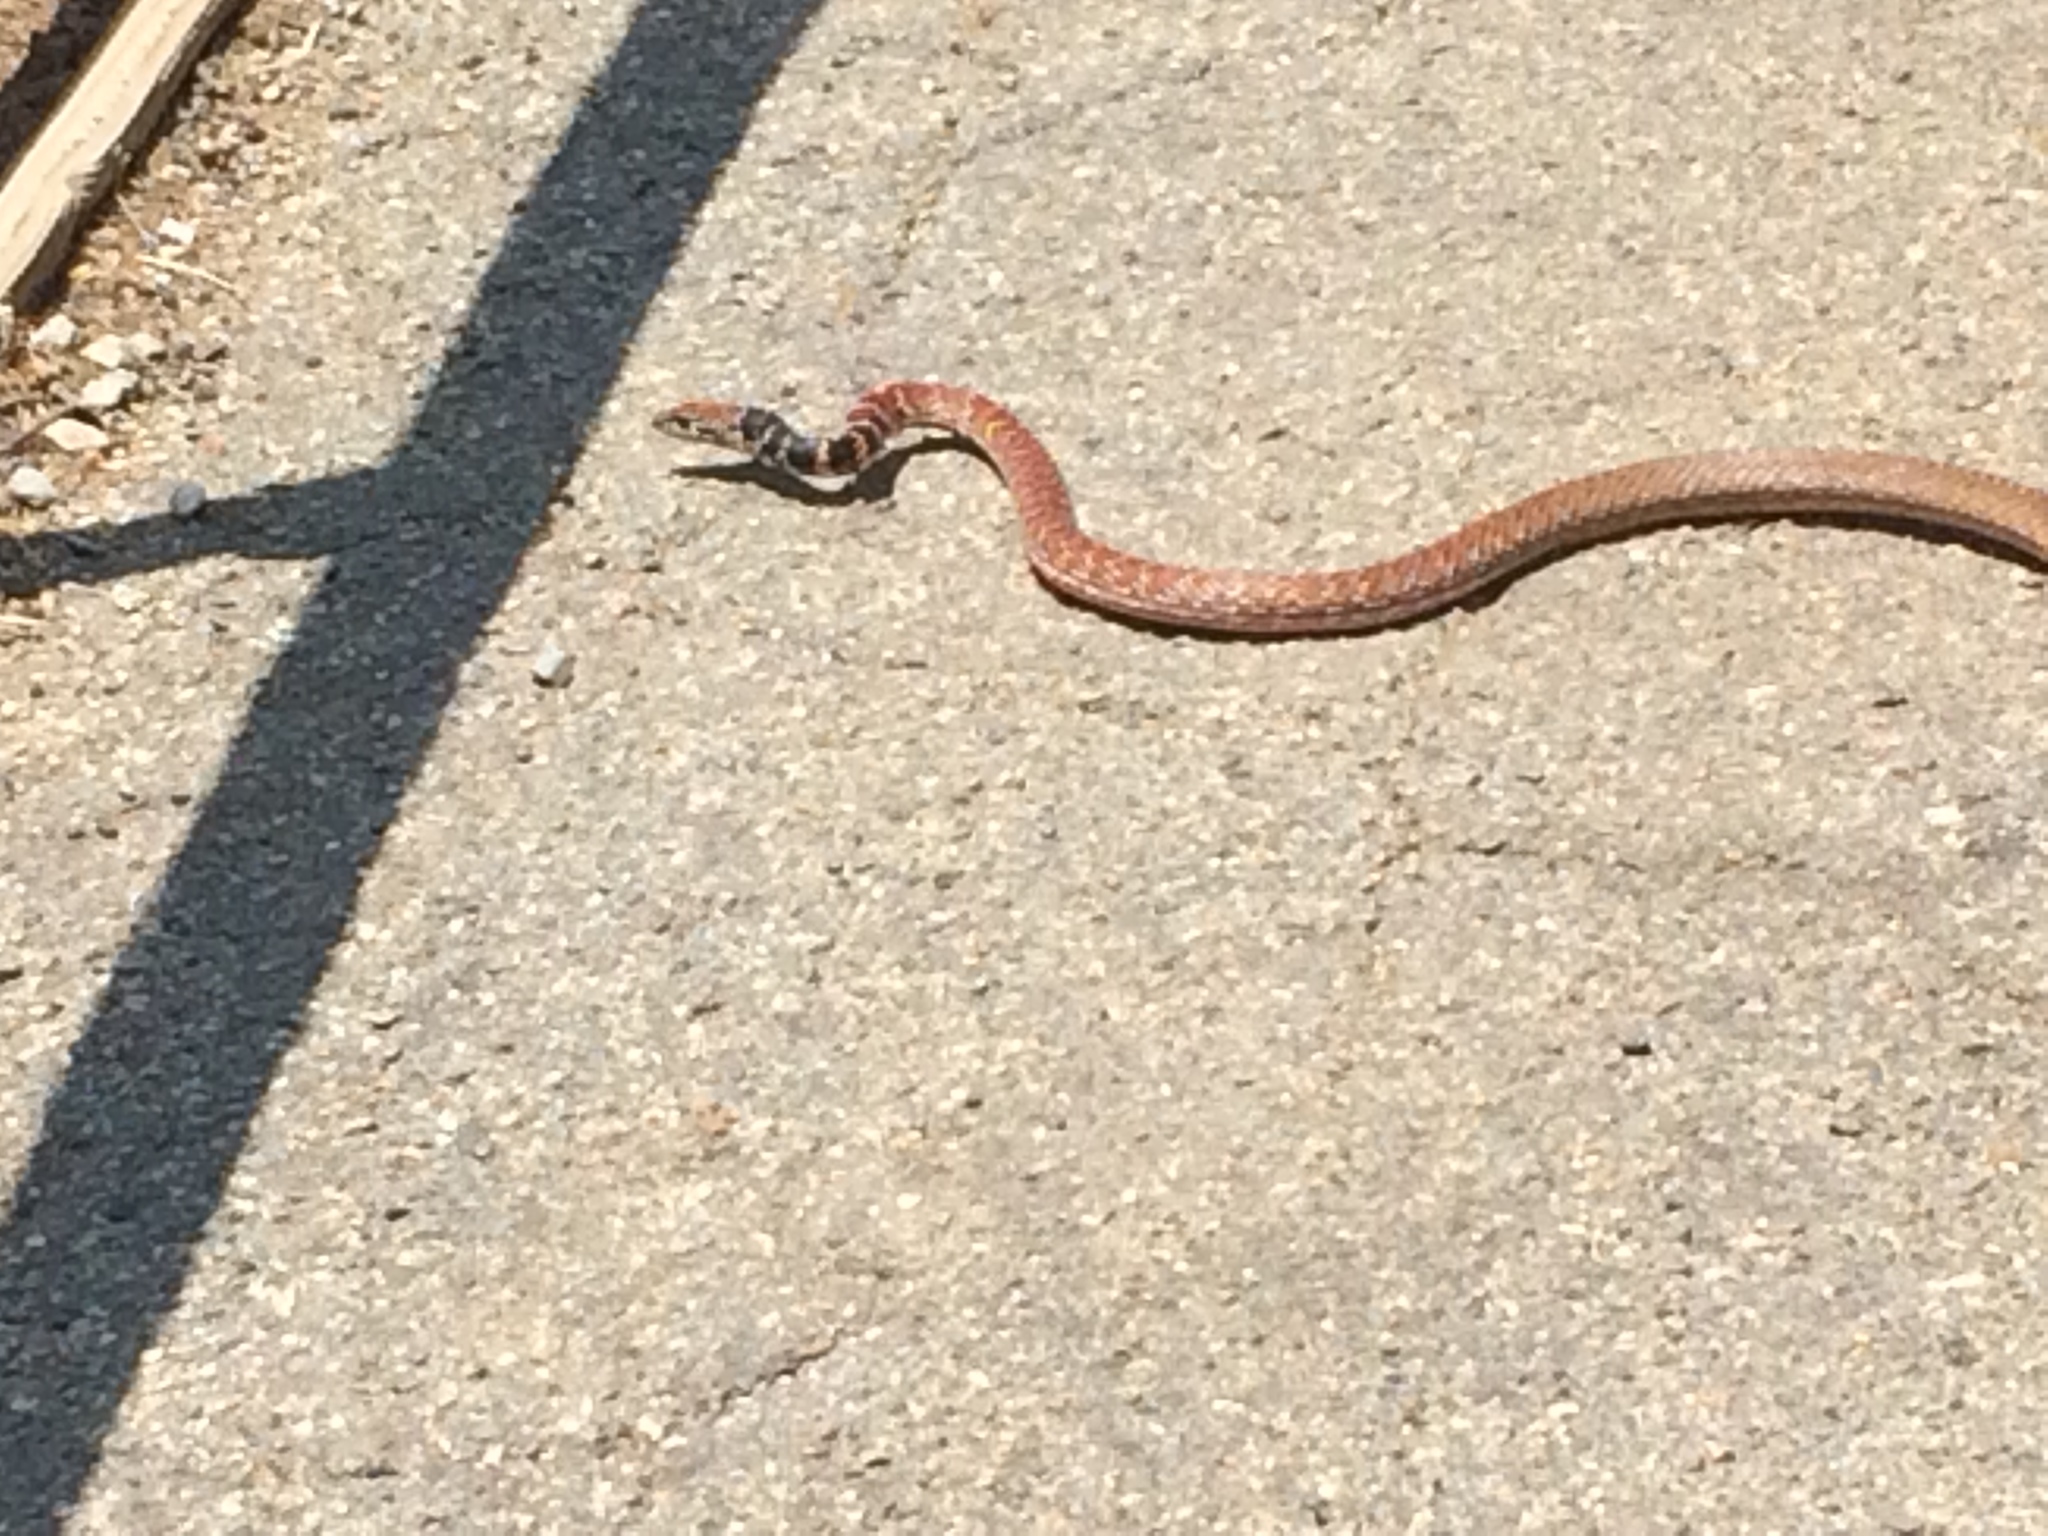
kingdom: Animalia
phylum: Chordata
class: Squamata
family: Colubridae
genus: Masticophis
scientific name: Masticophis flagellum
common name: Coachwhip
